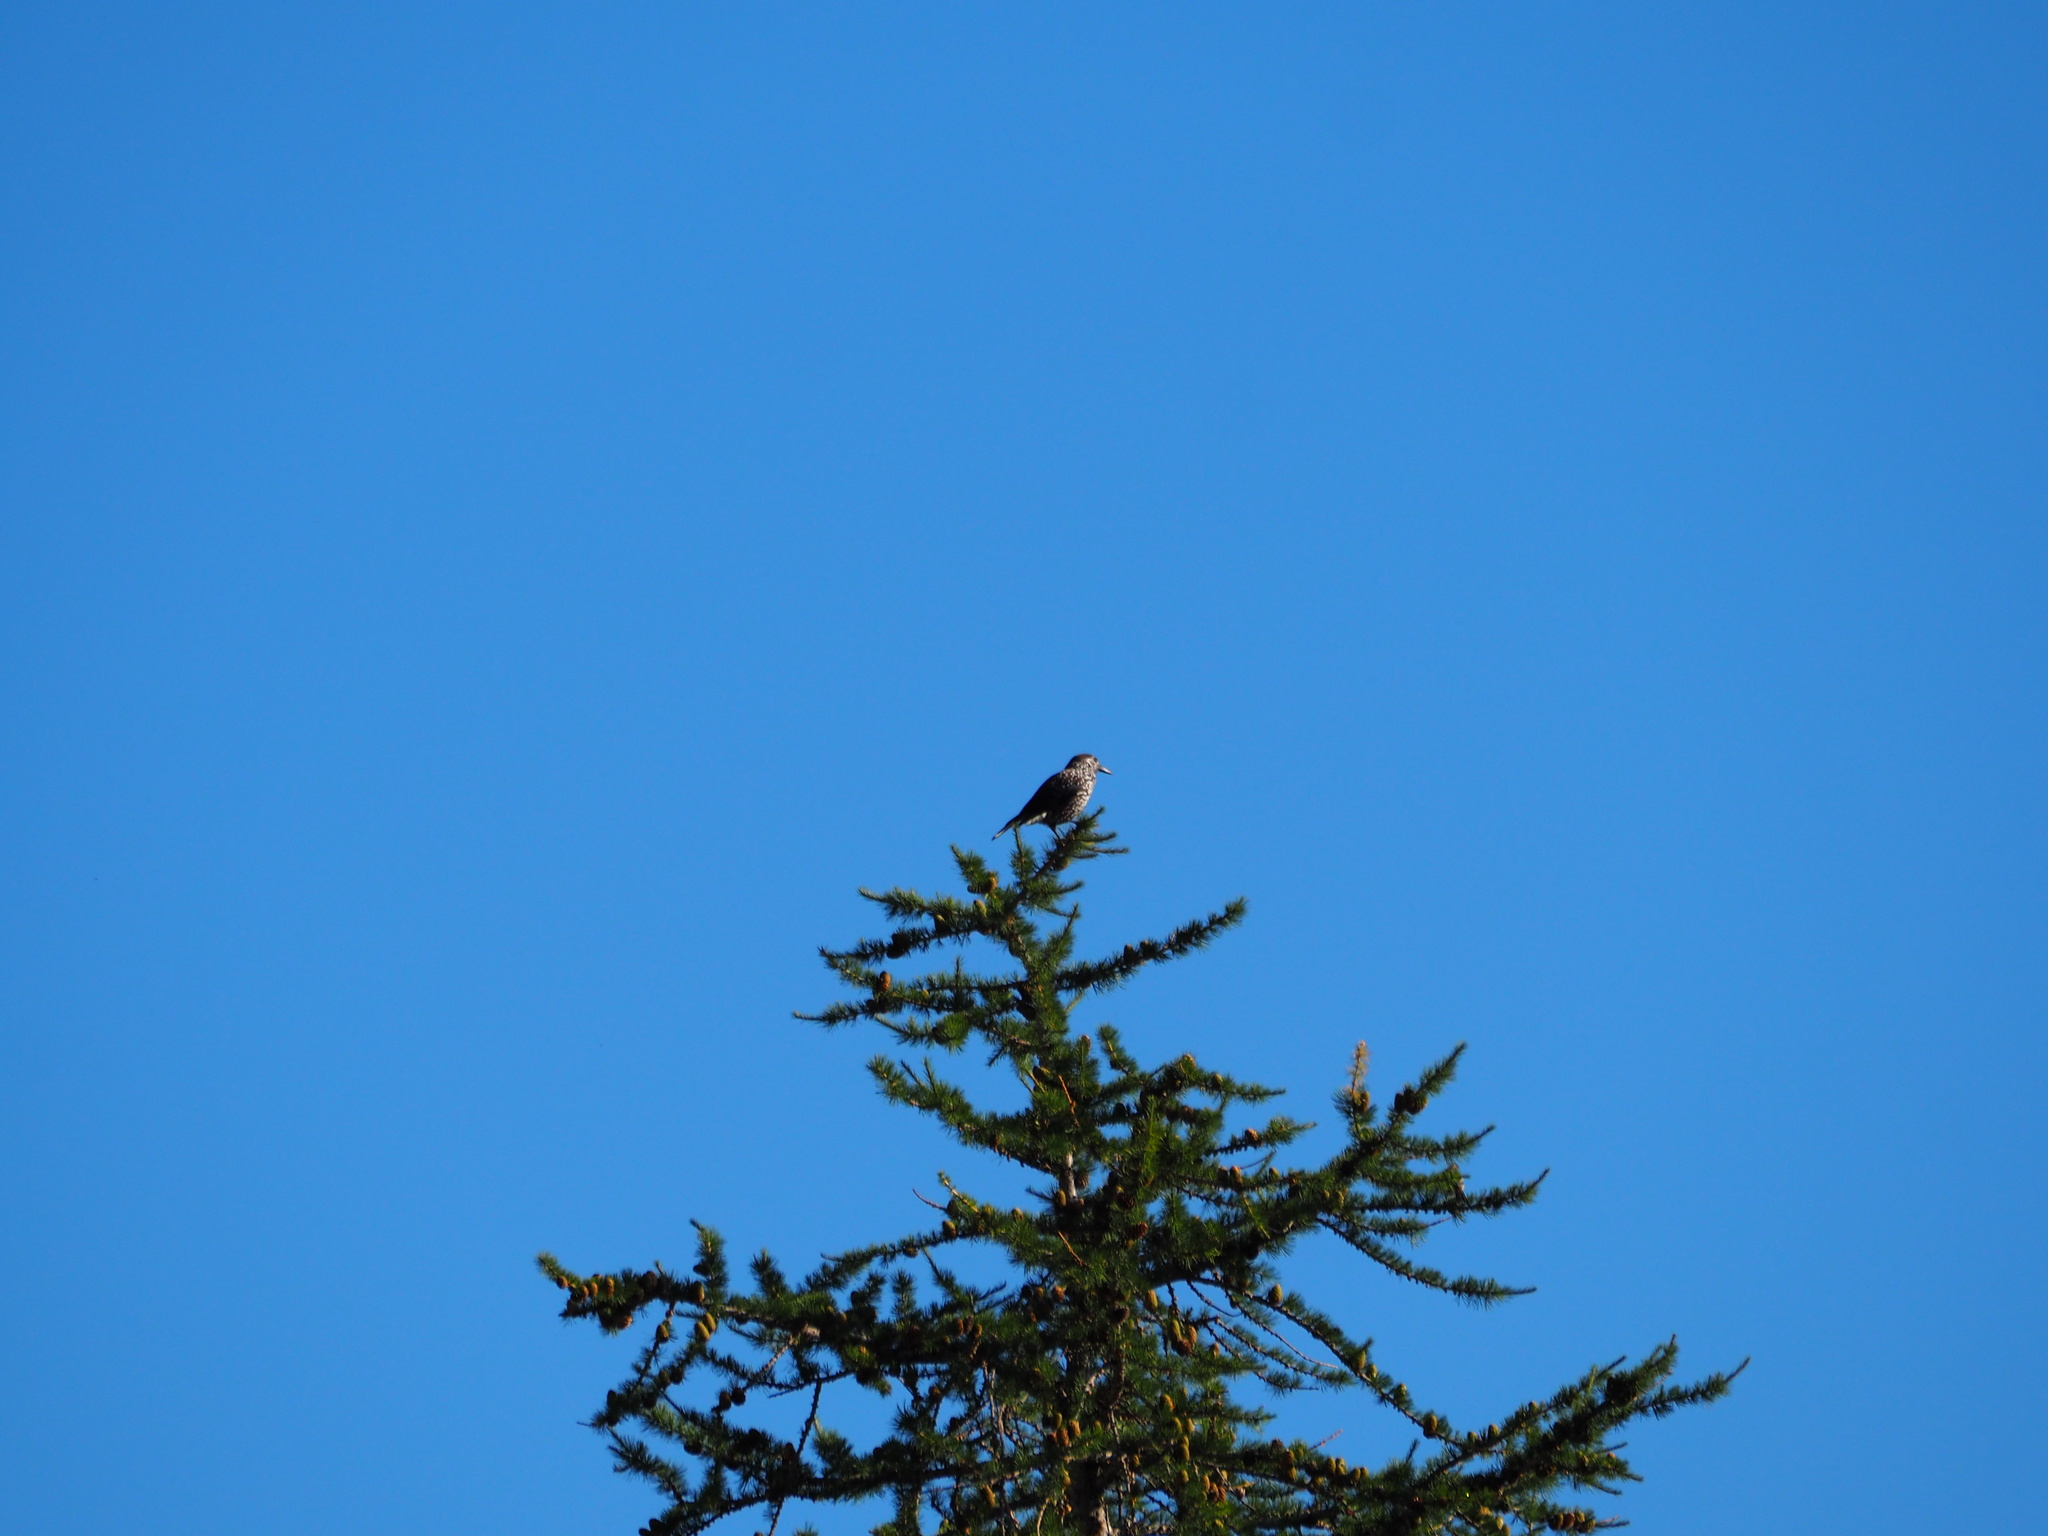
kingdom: Animalia
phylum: Chordata
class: Aves
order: Passeriformes
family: Corvidae
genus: Nucifraga
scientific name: Nucifraga caryocatactes
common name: Spotted nutcracker
